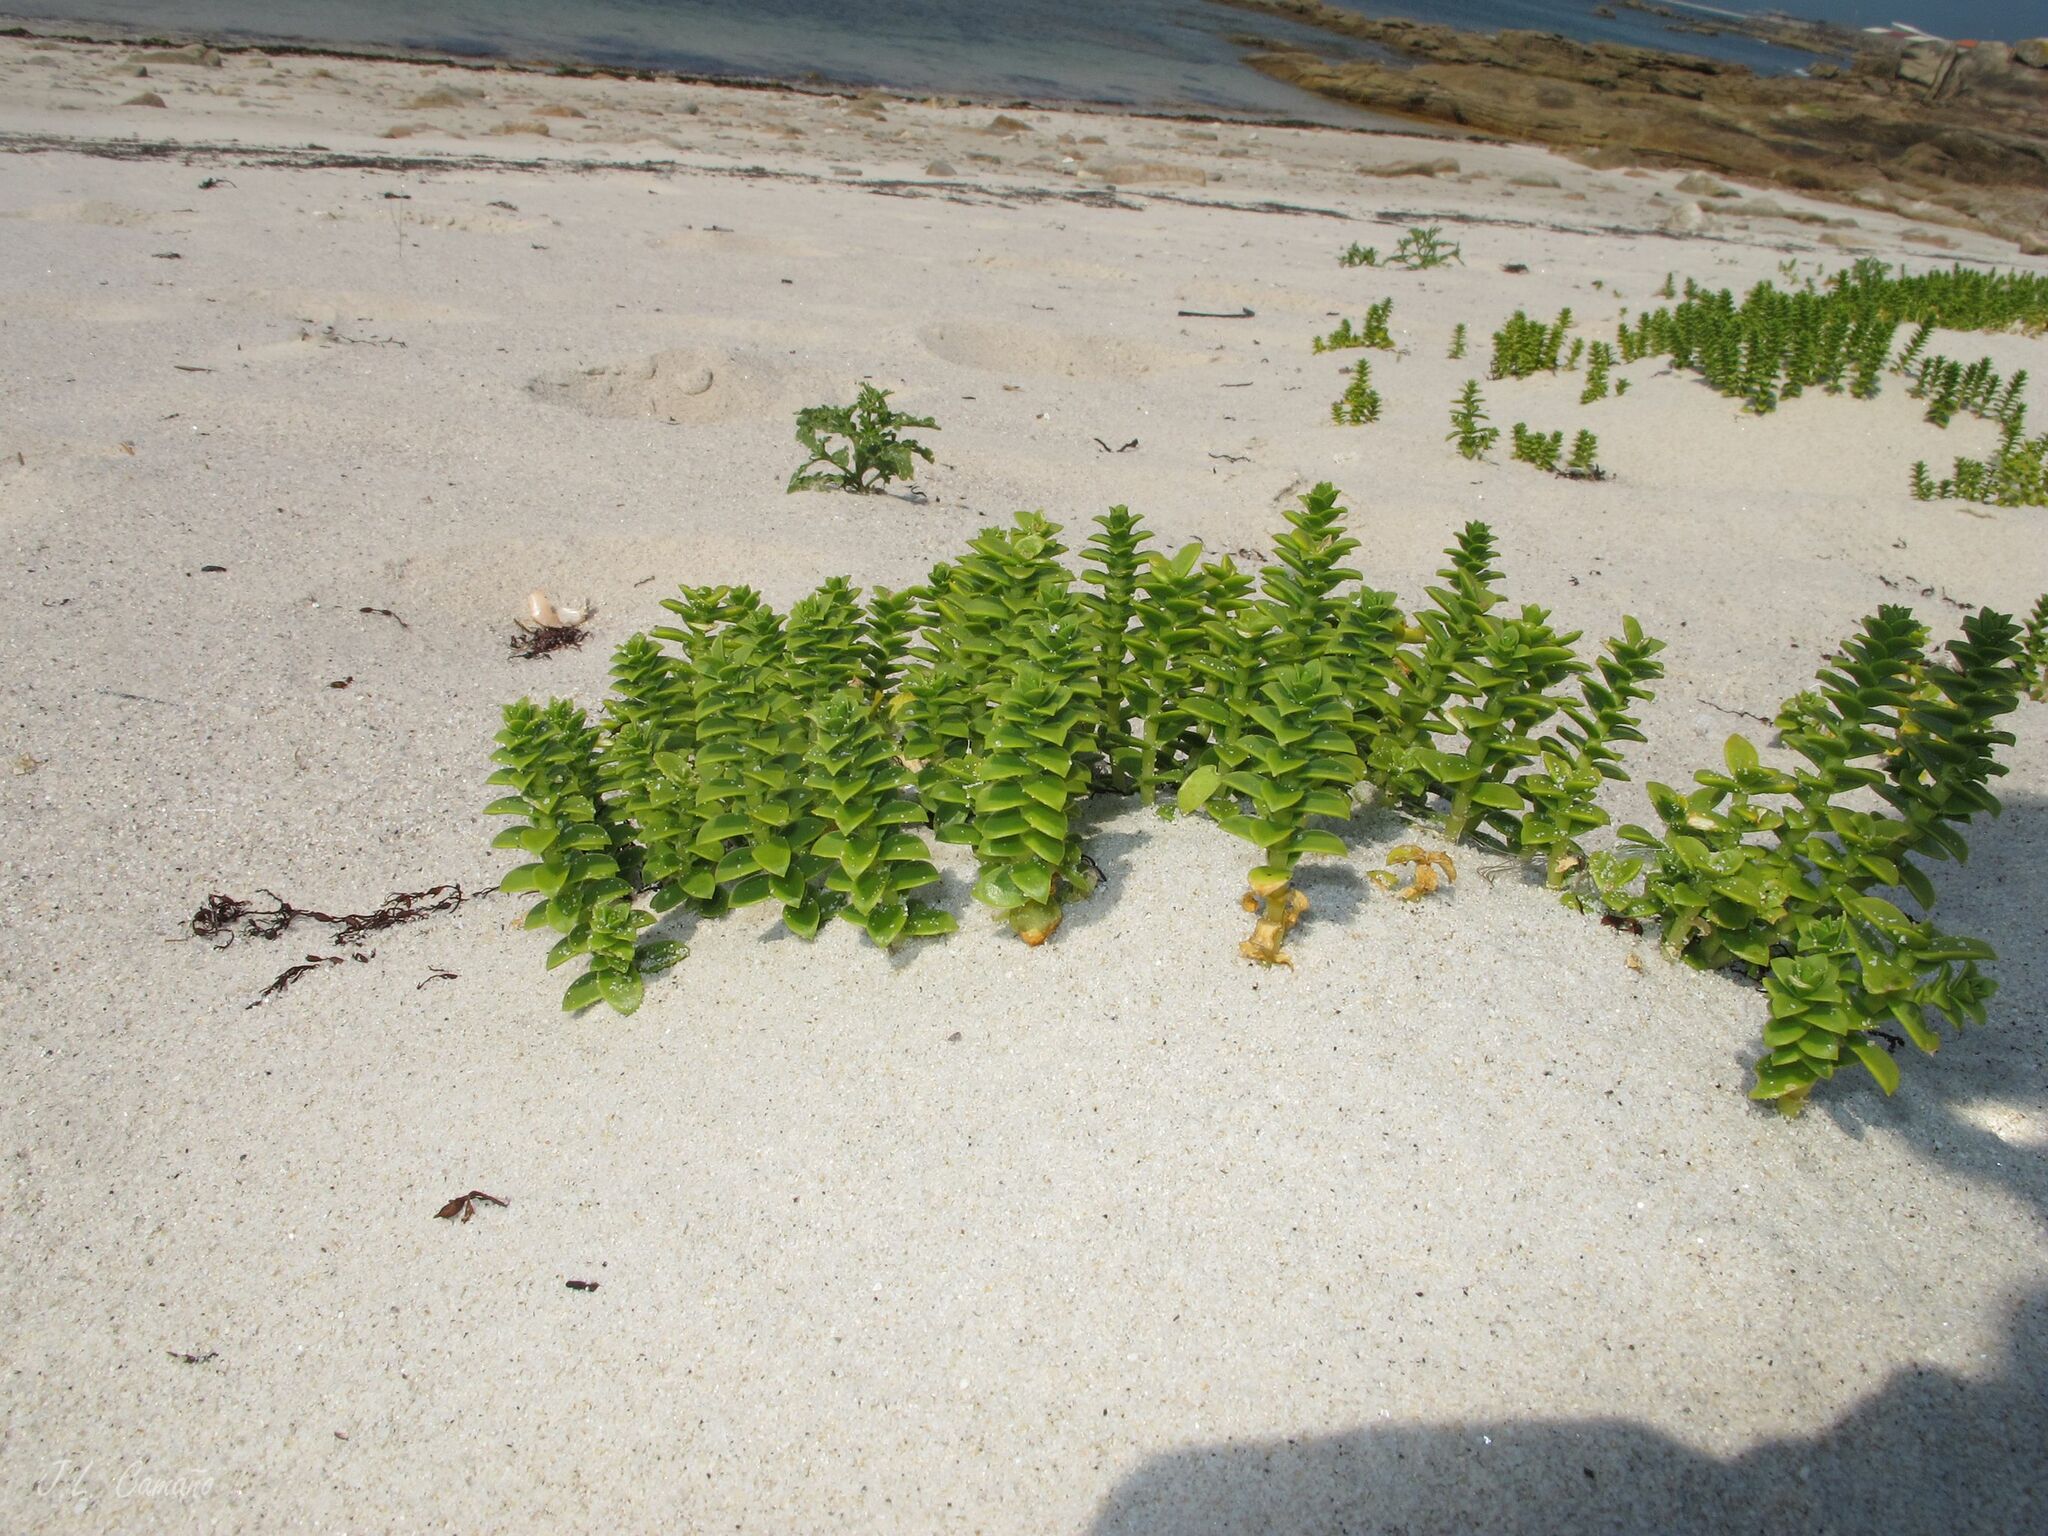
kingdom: Plantae
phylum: Tracheophyta
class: Magnoliopsida
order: Caryophyllales
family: Caryophyllaceae
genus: Honckenya
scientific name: Honckenya peploides
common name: Sea sandwort
